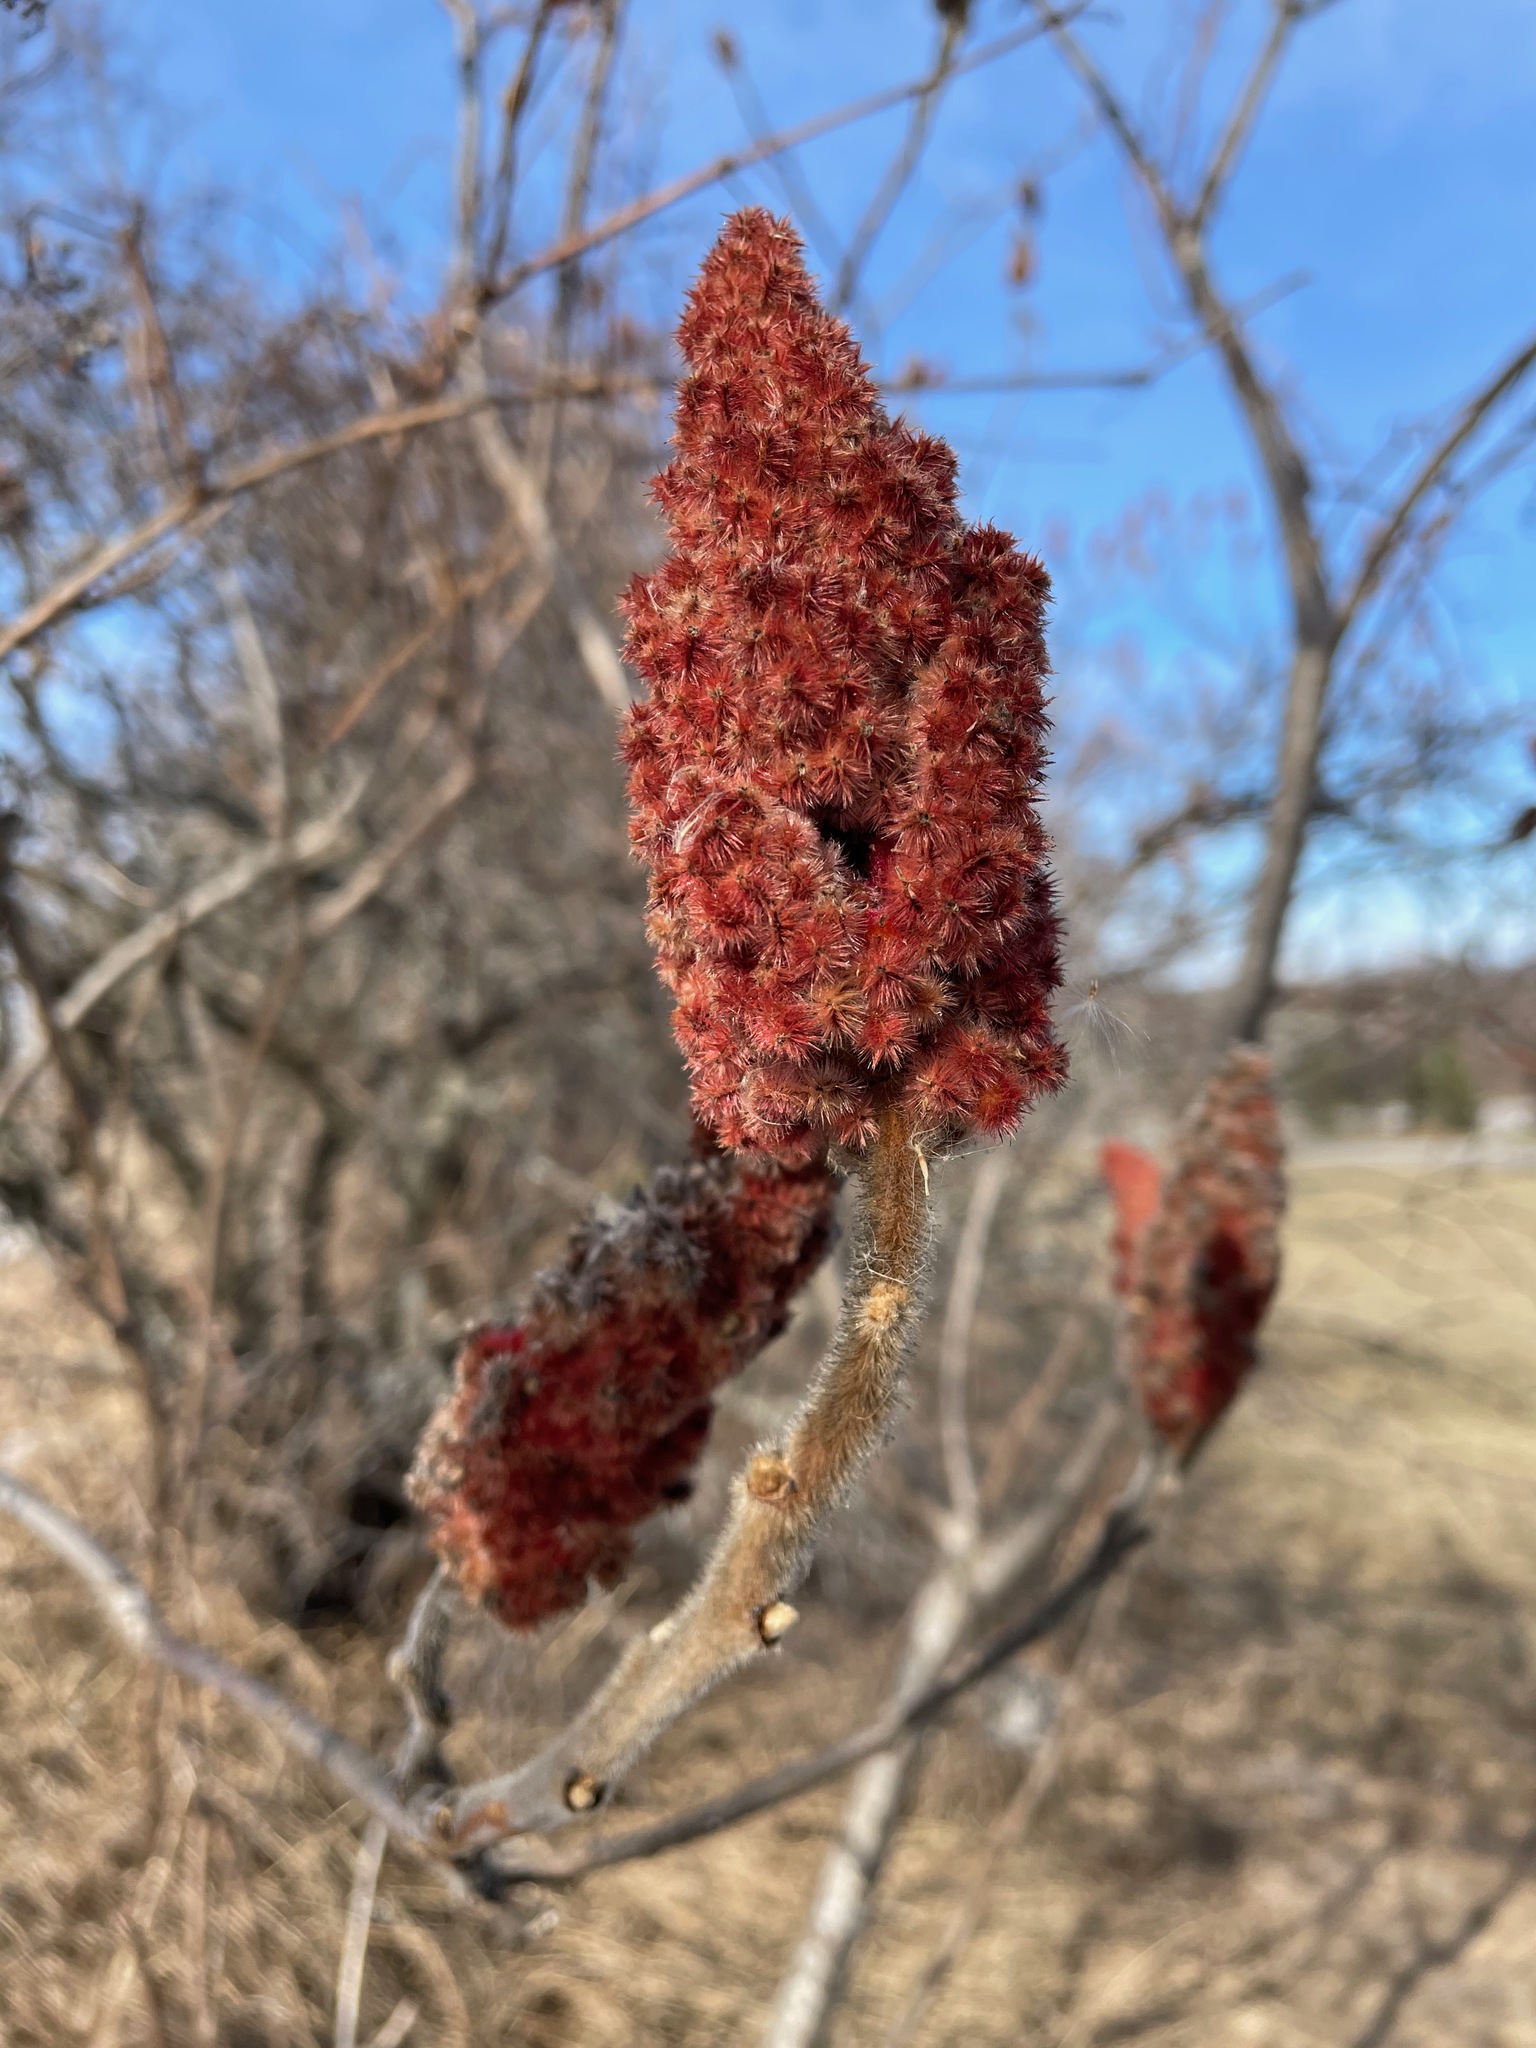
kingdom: Plantae
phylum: Tracheophyta
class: Magnoliopsida
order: Sapindales
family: Anacardiaceae
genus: Rhus
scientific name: Rhus typhina
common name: Staghorn sumac
